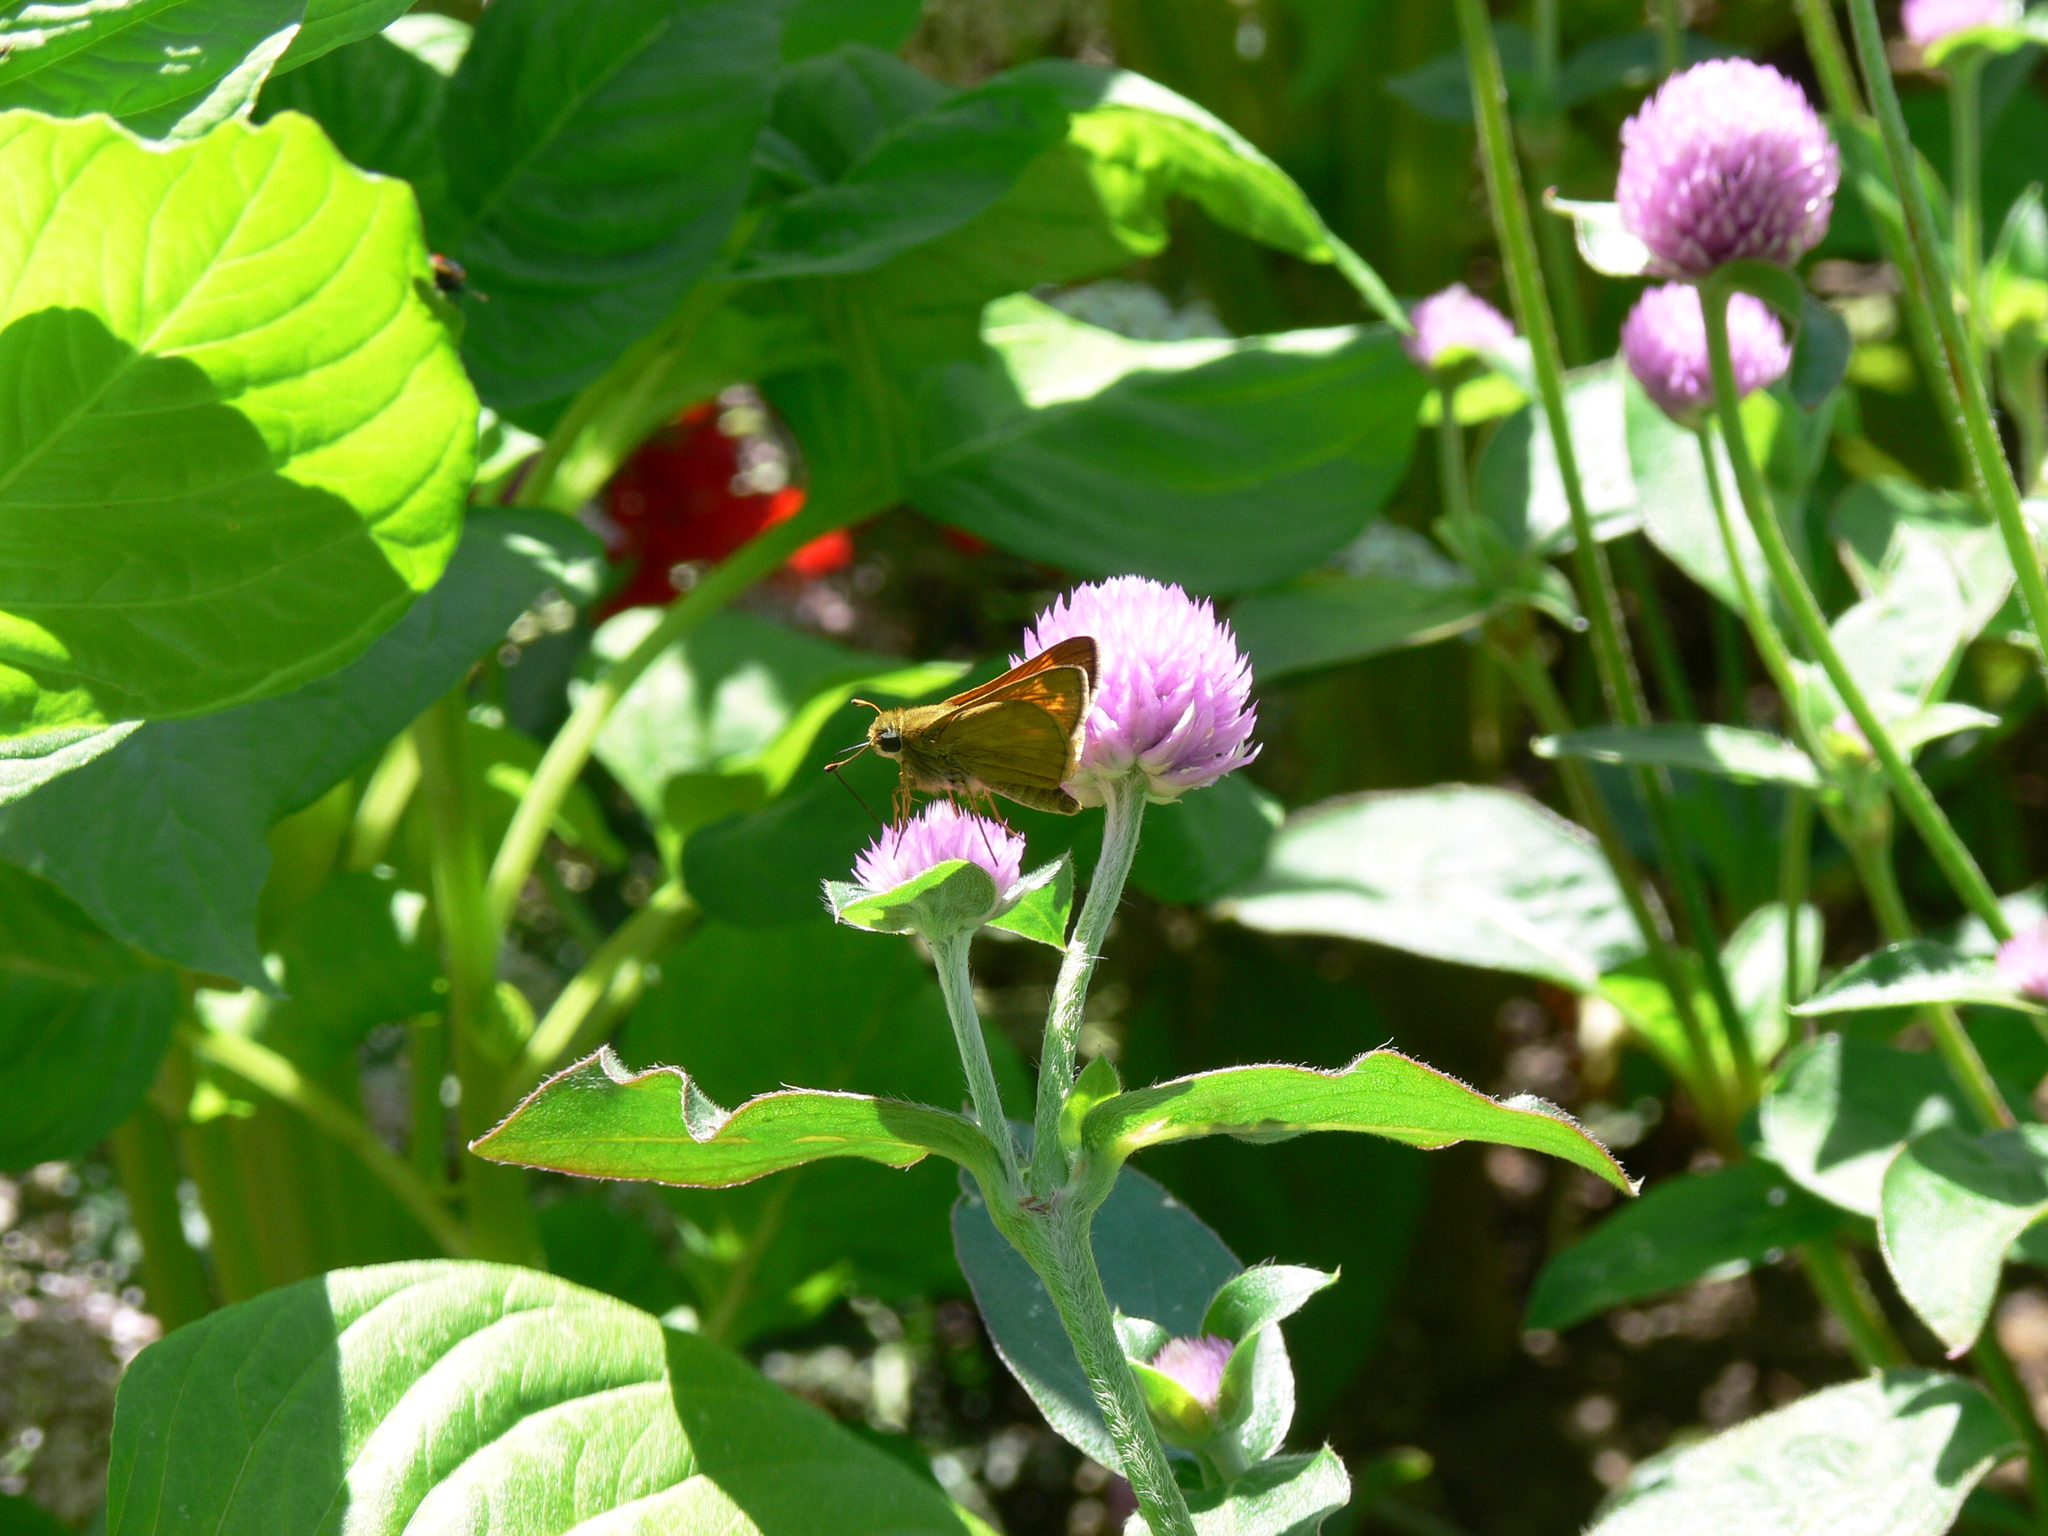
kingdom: Animalia
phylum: Arthropoda
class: Insecta
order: Lepidoptera
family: Hesperiidae
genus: Atalopedes
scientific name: Atalopedes
